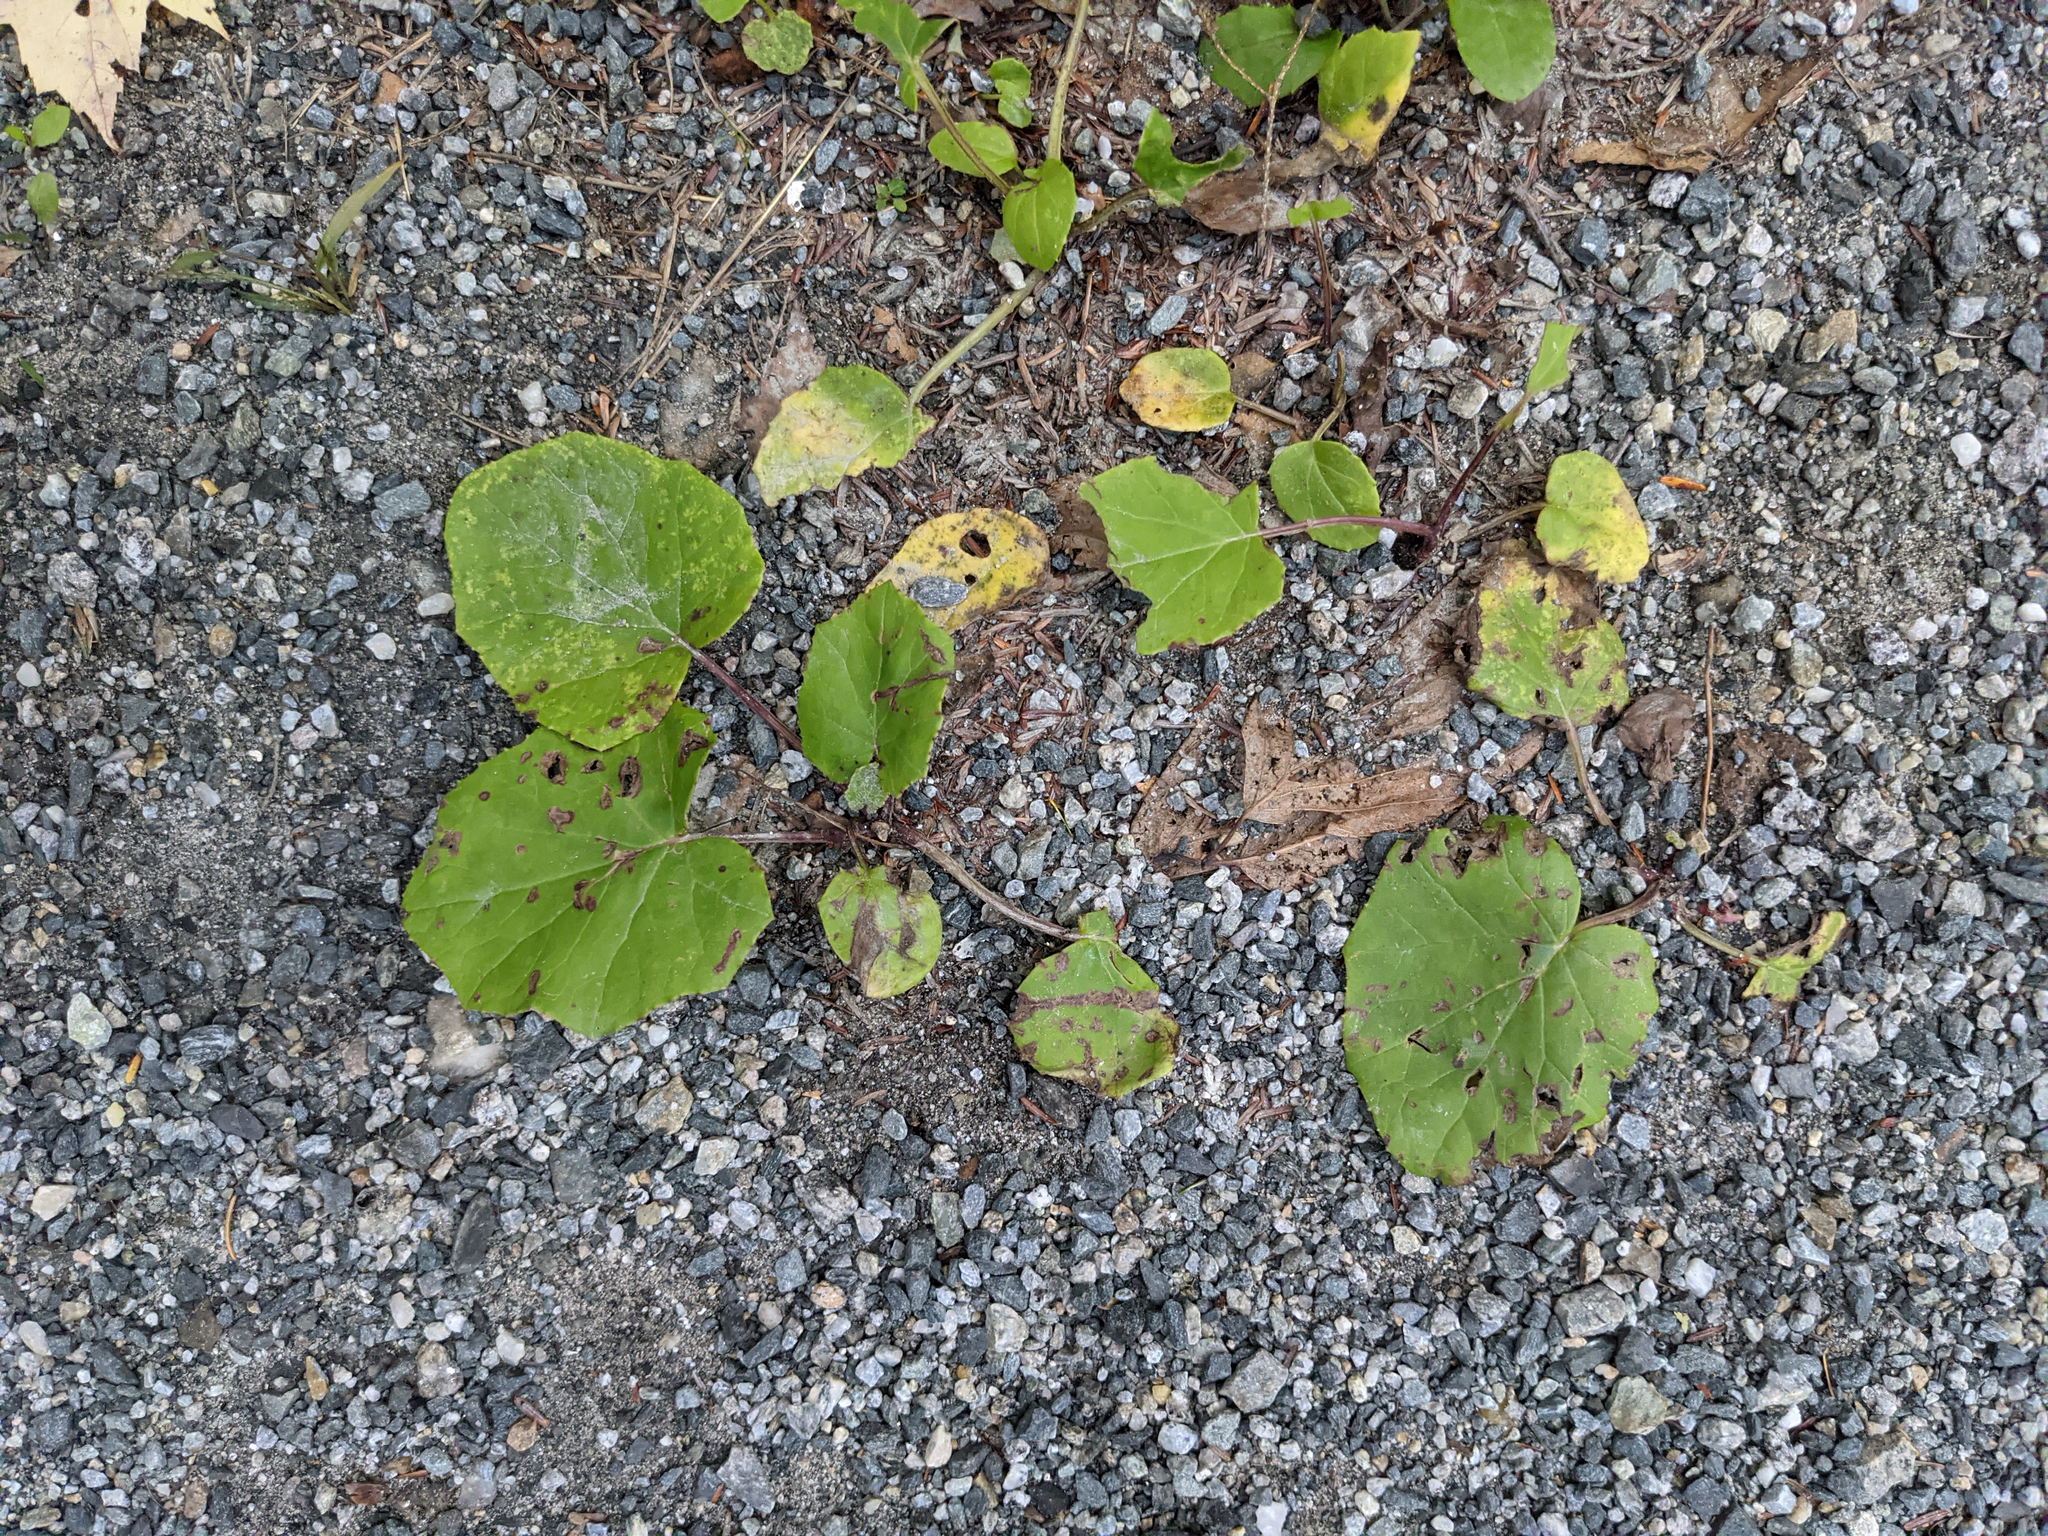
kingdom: Plantae
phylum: Tracheophyta
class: Magnoliopsida
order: Asterales
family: Asteraceae
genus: Arctium
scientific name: Arctium
